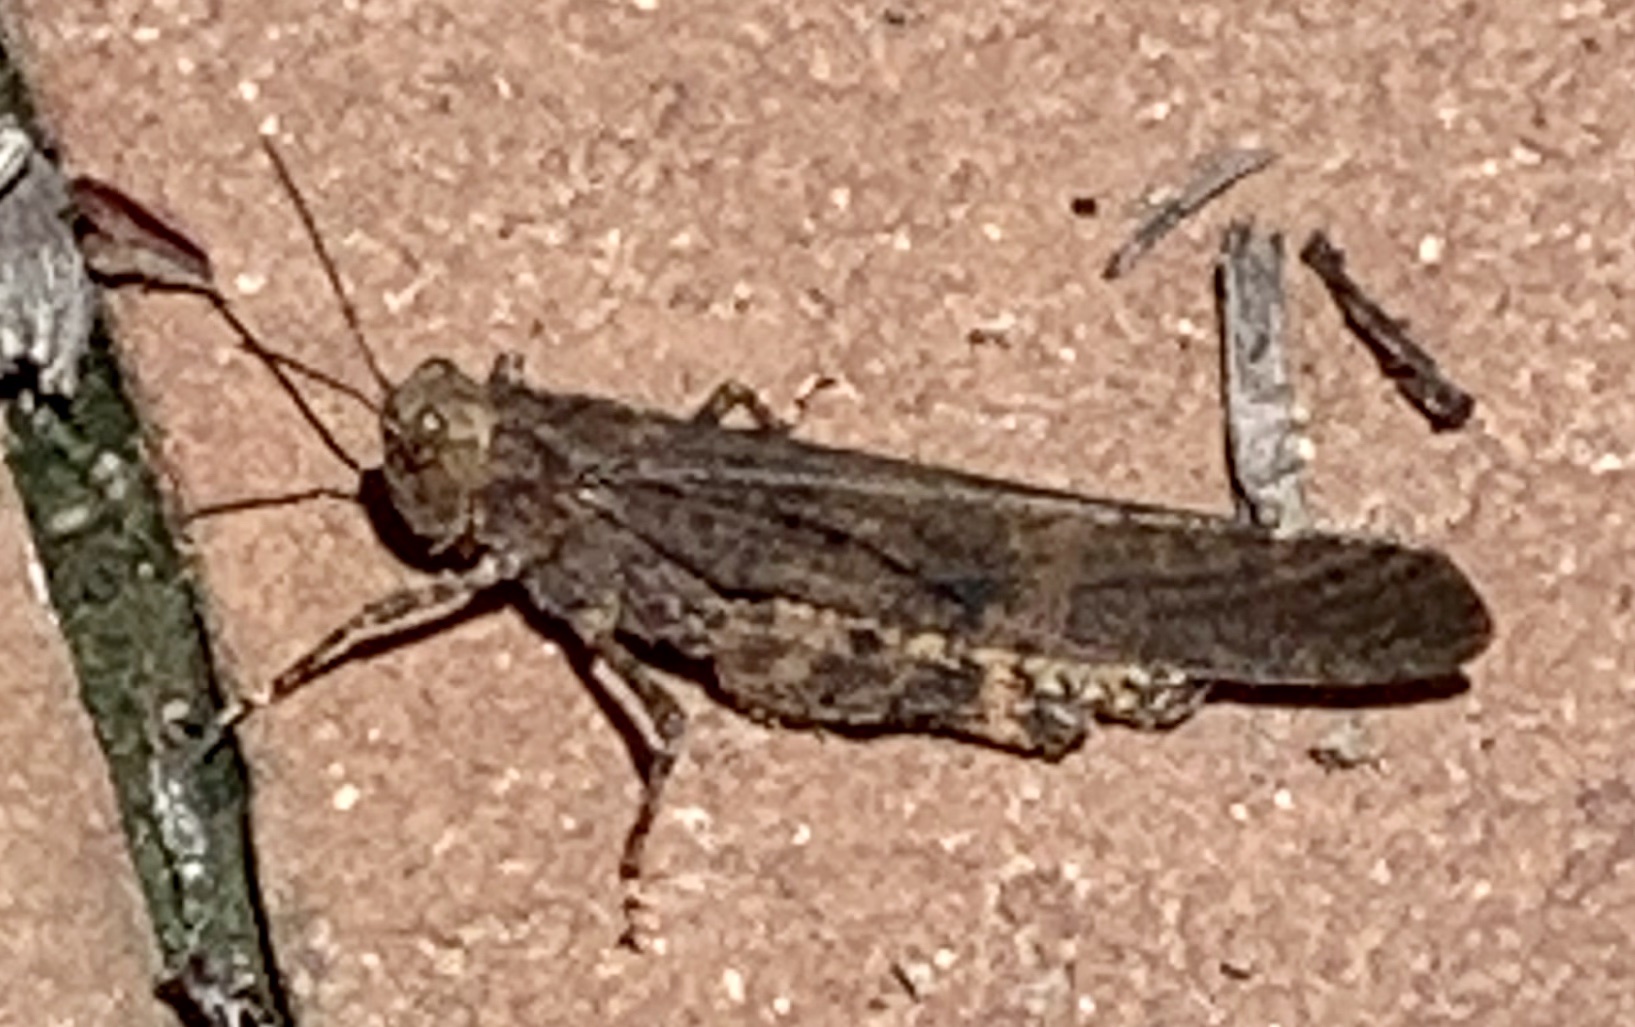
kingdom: Animalia
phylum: Arthropoda
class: Insecta
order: Orthoptera
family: Acrididae
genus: Dissosteira
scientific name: Dissosteira carolina
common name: Carolina grasshopper
